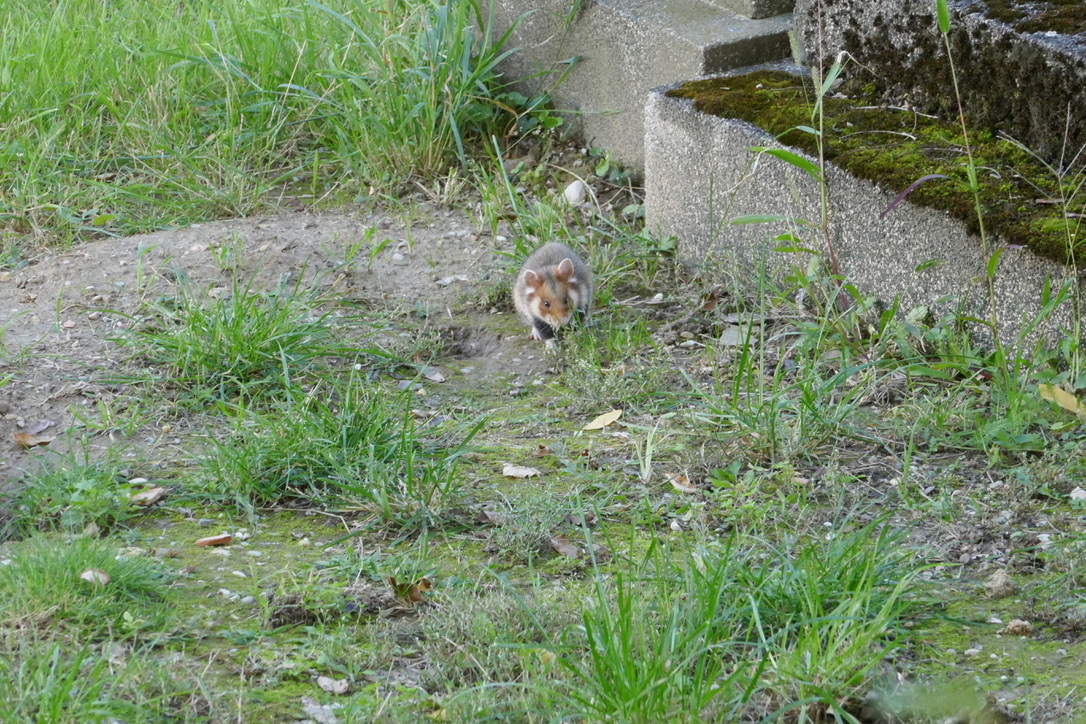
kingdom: Animalia
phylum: Chordata
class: Mammalia
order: Rodentia
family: Cricetidae
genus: Cricetus
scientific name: Cricetus cricetus
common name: Common hamster
